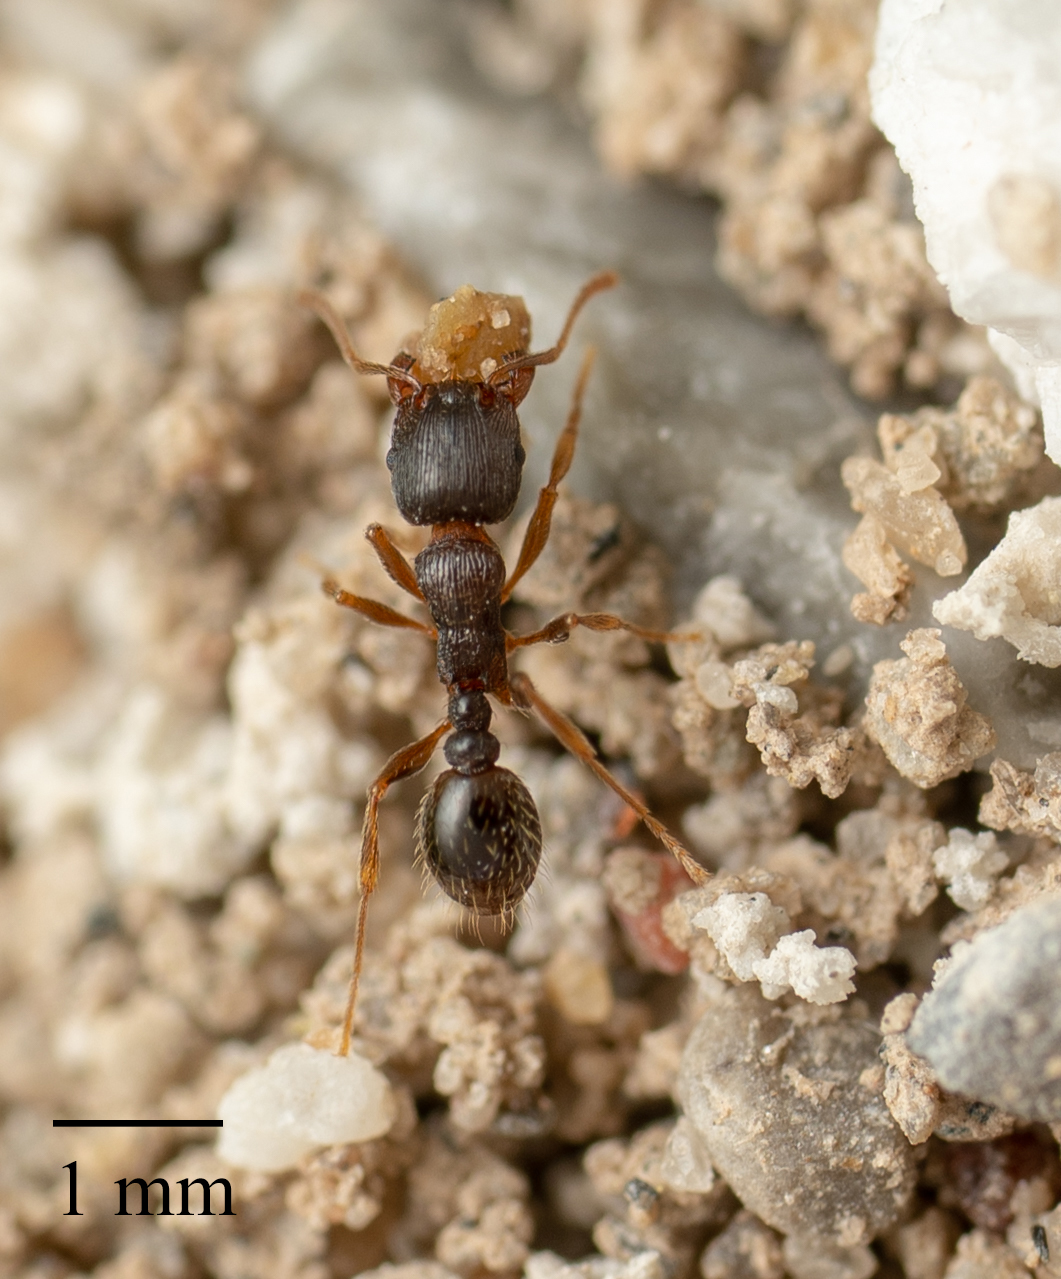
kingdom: Animalia
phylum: Arthropoda
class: Insecta
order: Hymenoptera
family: Formicidae
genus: Tetramorium
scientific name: Tetramorium immigrans
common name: Pavement ant
